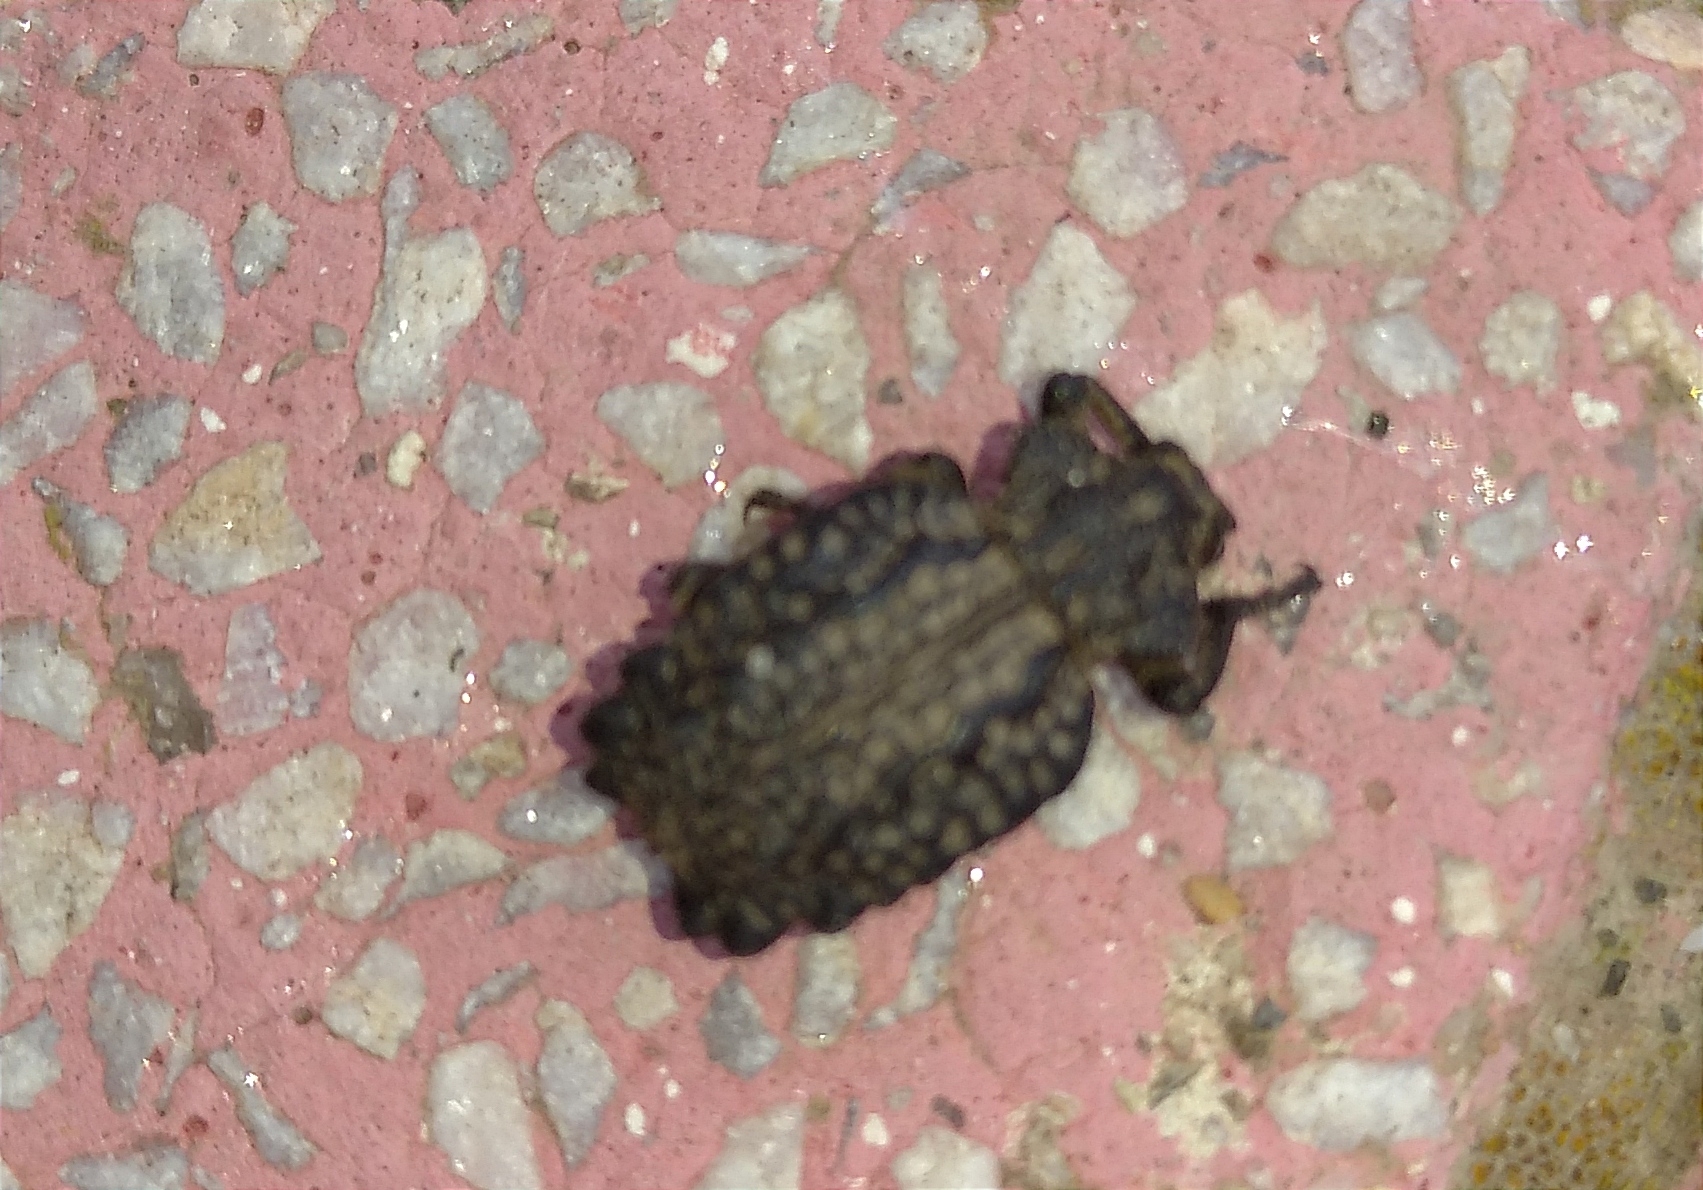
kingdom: Animalia
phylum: Arthropoda
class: Insecta
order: Coleoptera
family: Brachyceridae
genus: Brachycerus
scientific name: Brachycerus undatus
